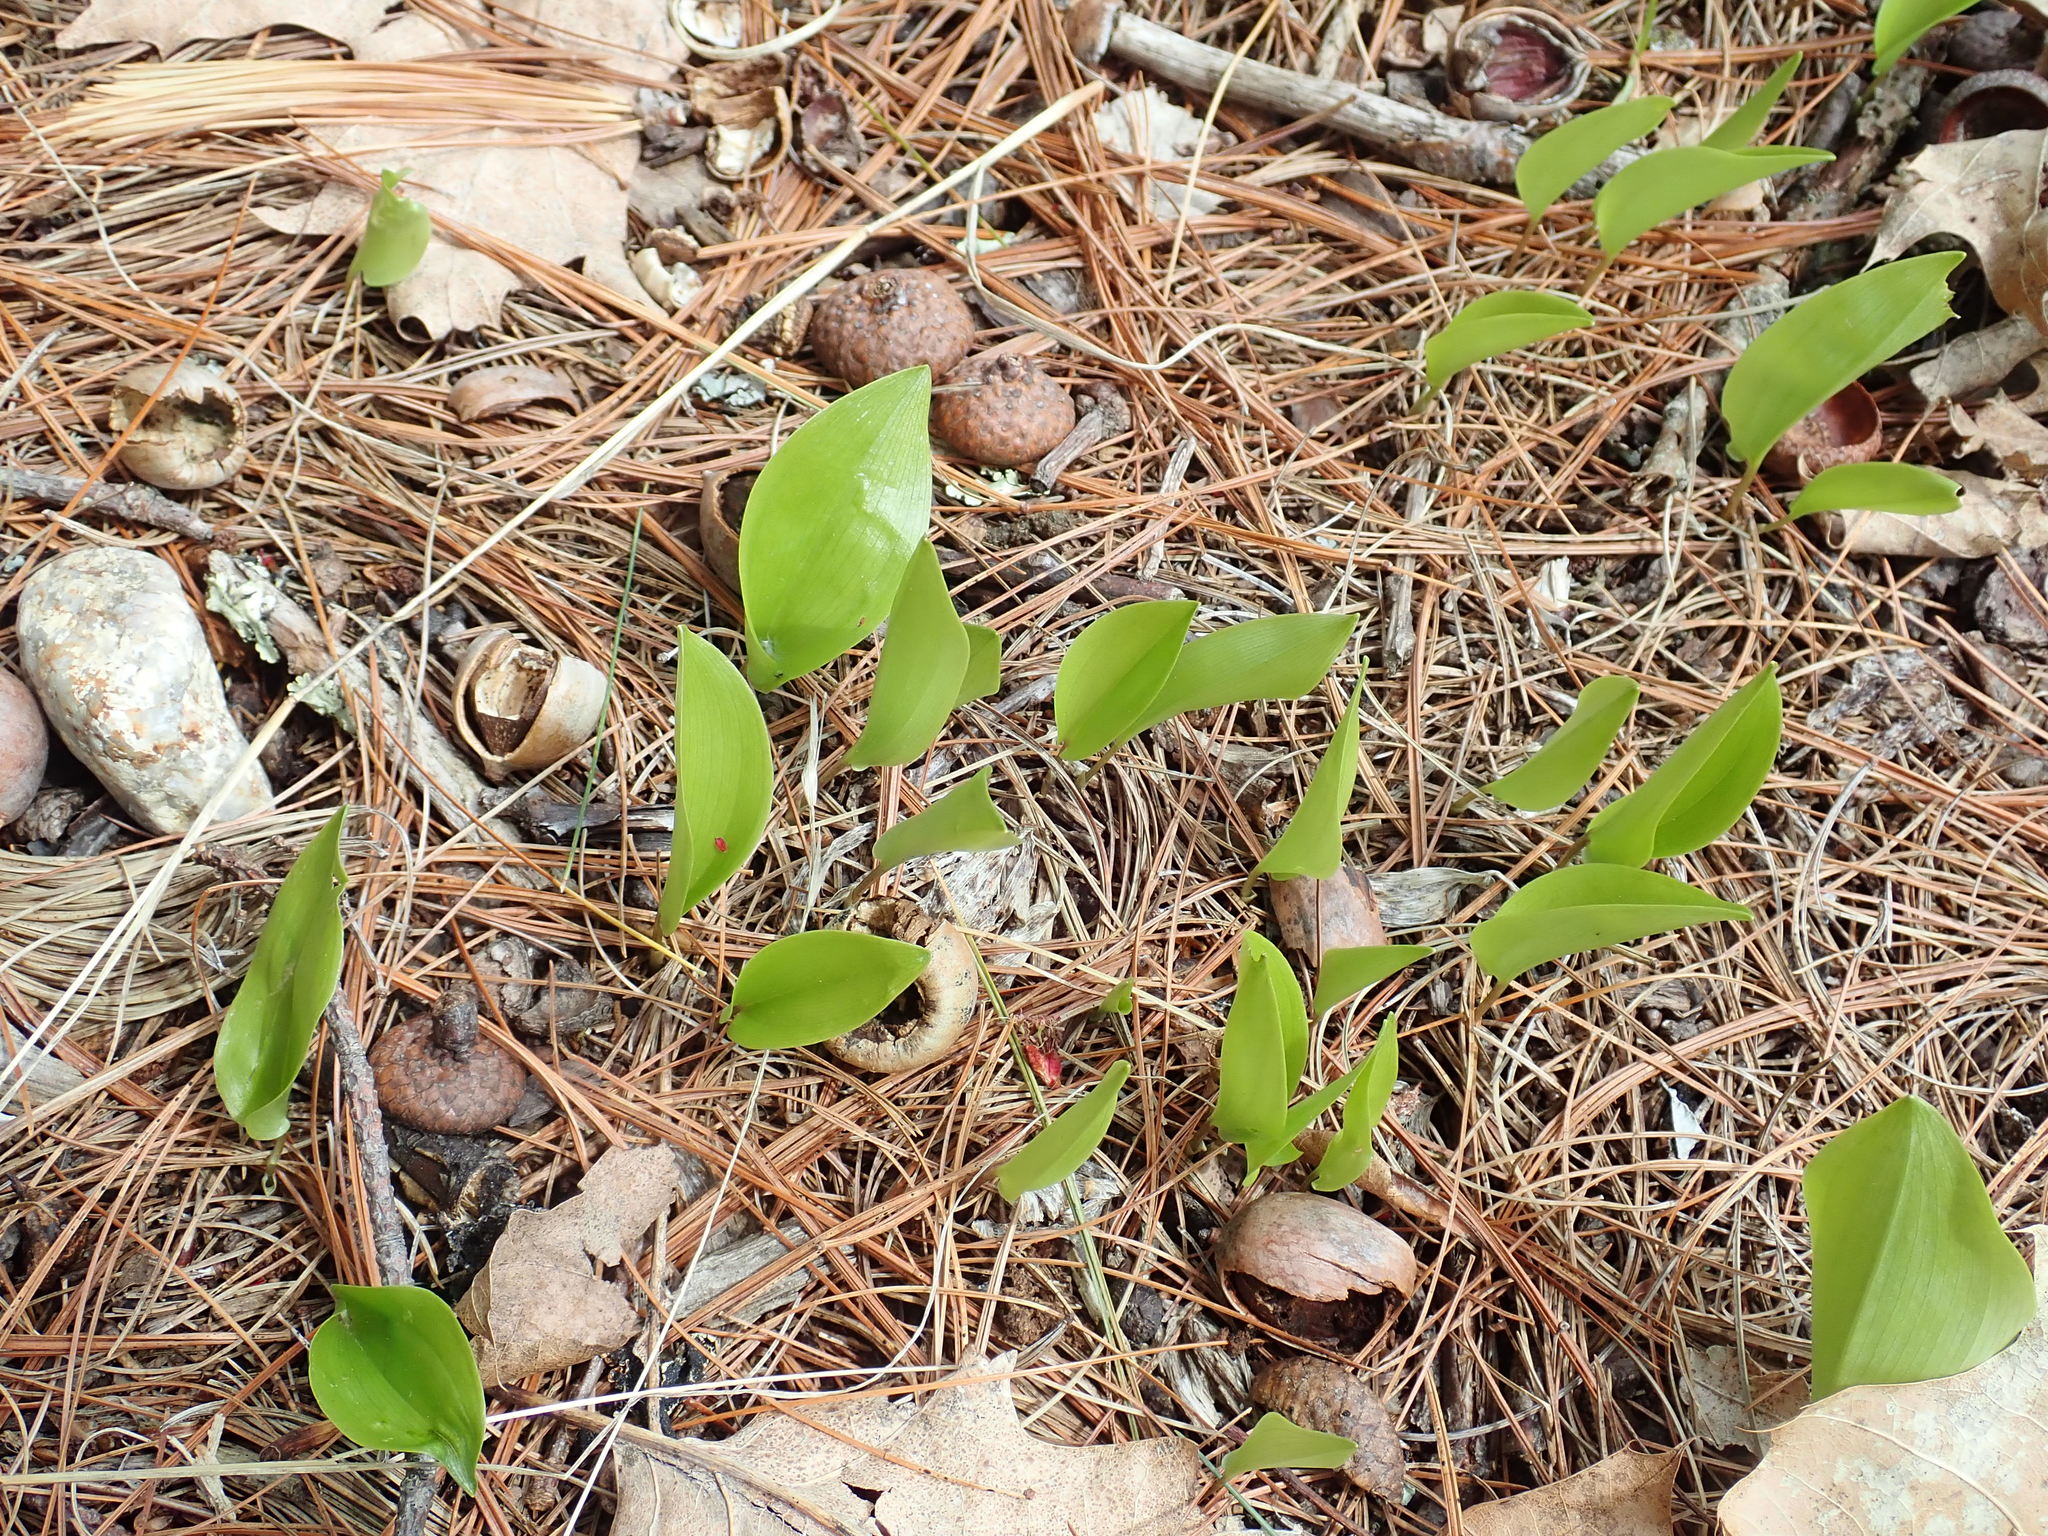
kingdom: Plantae
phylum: Tracheophyta
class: Liliopsida
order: Asparagales
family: Asparagaceae
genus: Maianthemum
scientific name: Maianthemum canadense
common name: False lily-of-the-valley
